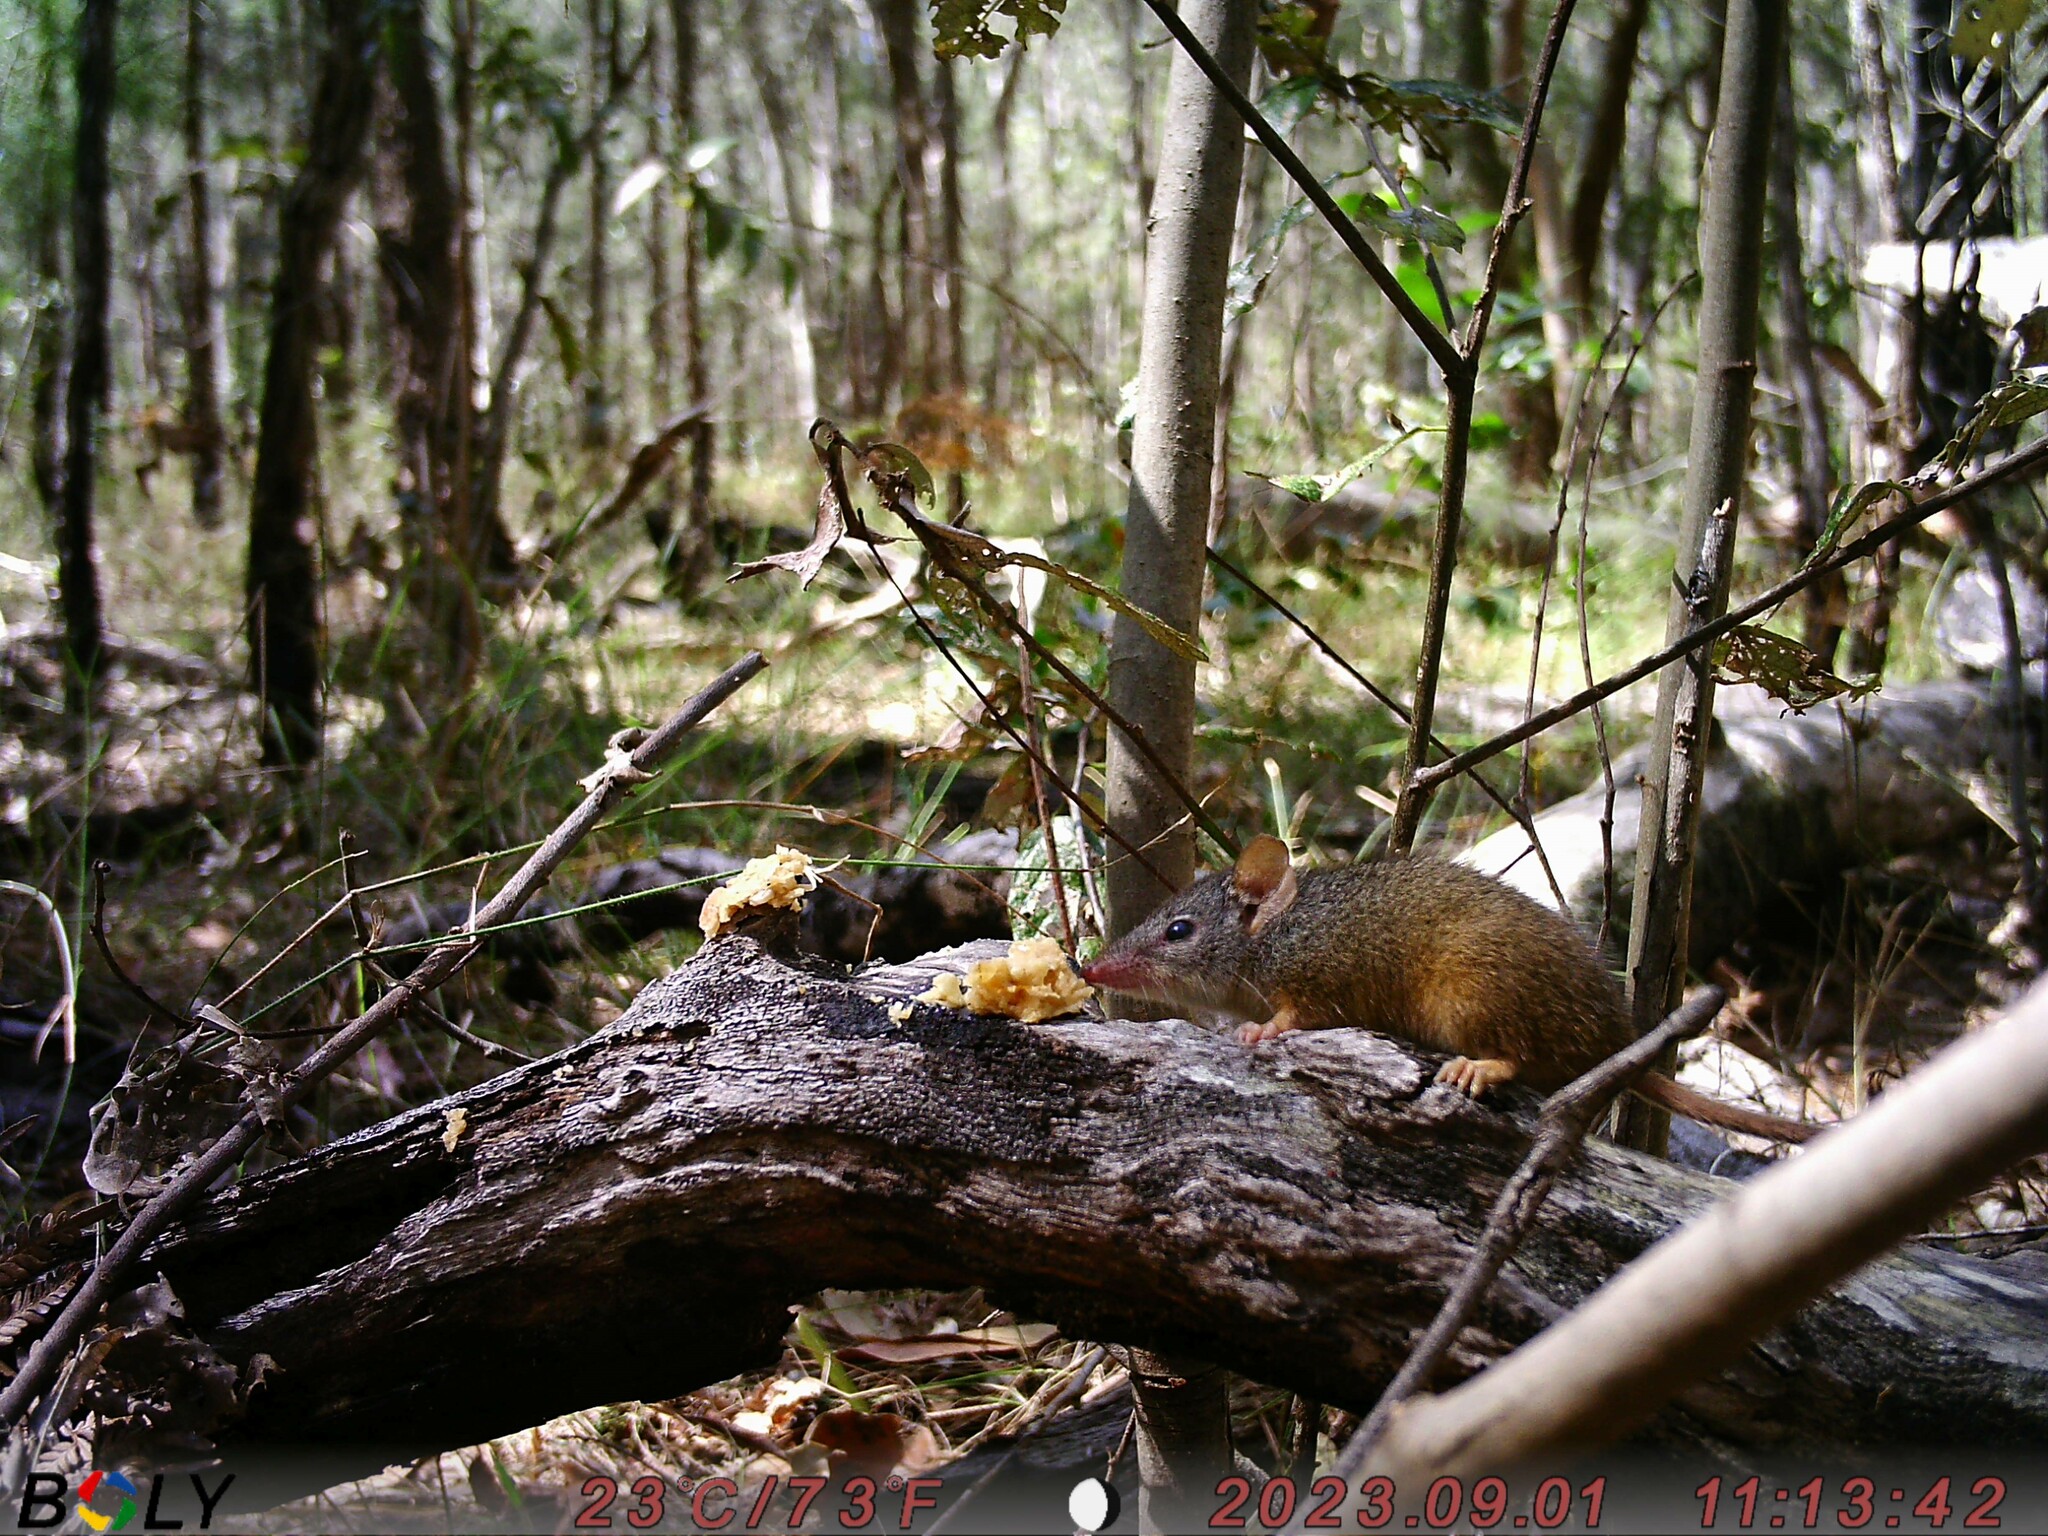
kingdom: Animalia
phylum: Chordata
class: Mammalia
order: Dasyuromorphia
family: Dasyuridae
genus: Antechinus
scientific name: Antechinus flavipes
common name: Yellow-footed antechinus
